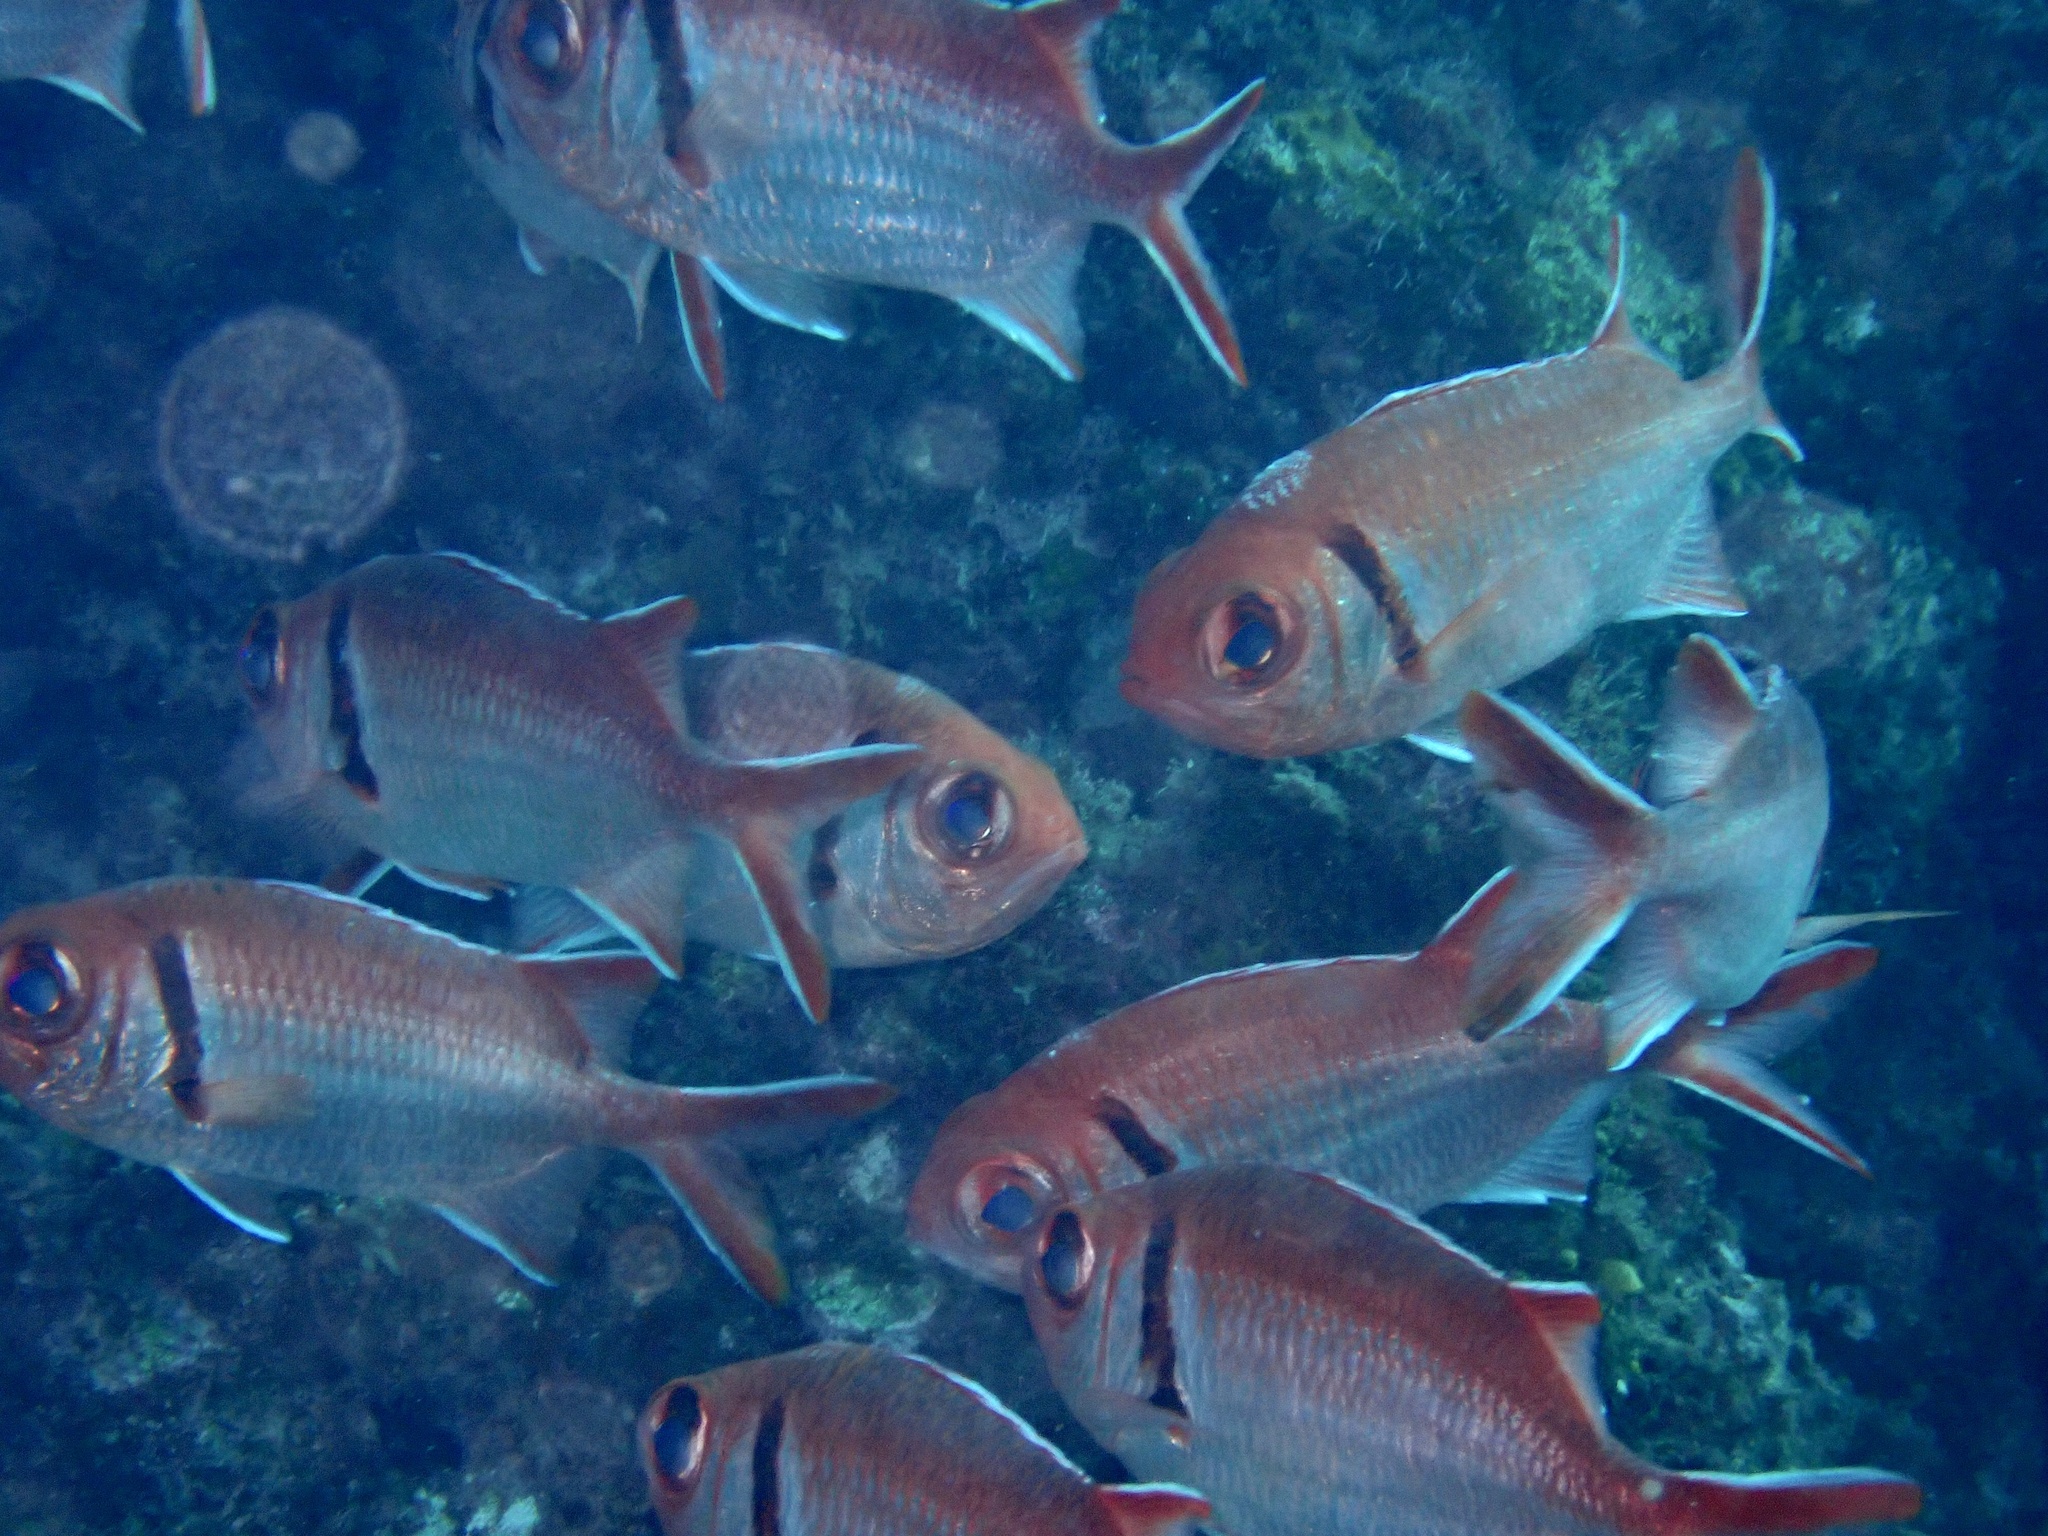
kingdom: Animalia
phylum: Chordata
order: Beryciformes
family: Holocentridae
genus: Myripristis
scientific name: Myripristis jacobus
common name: Blackbar soldierfish
